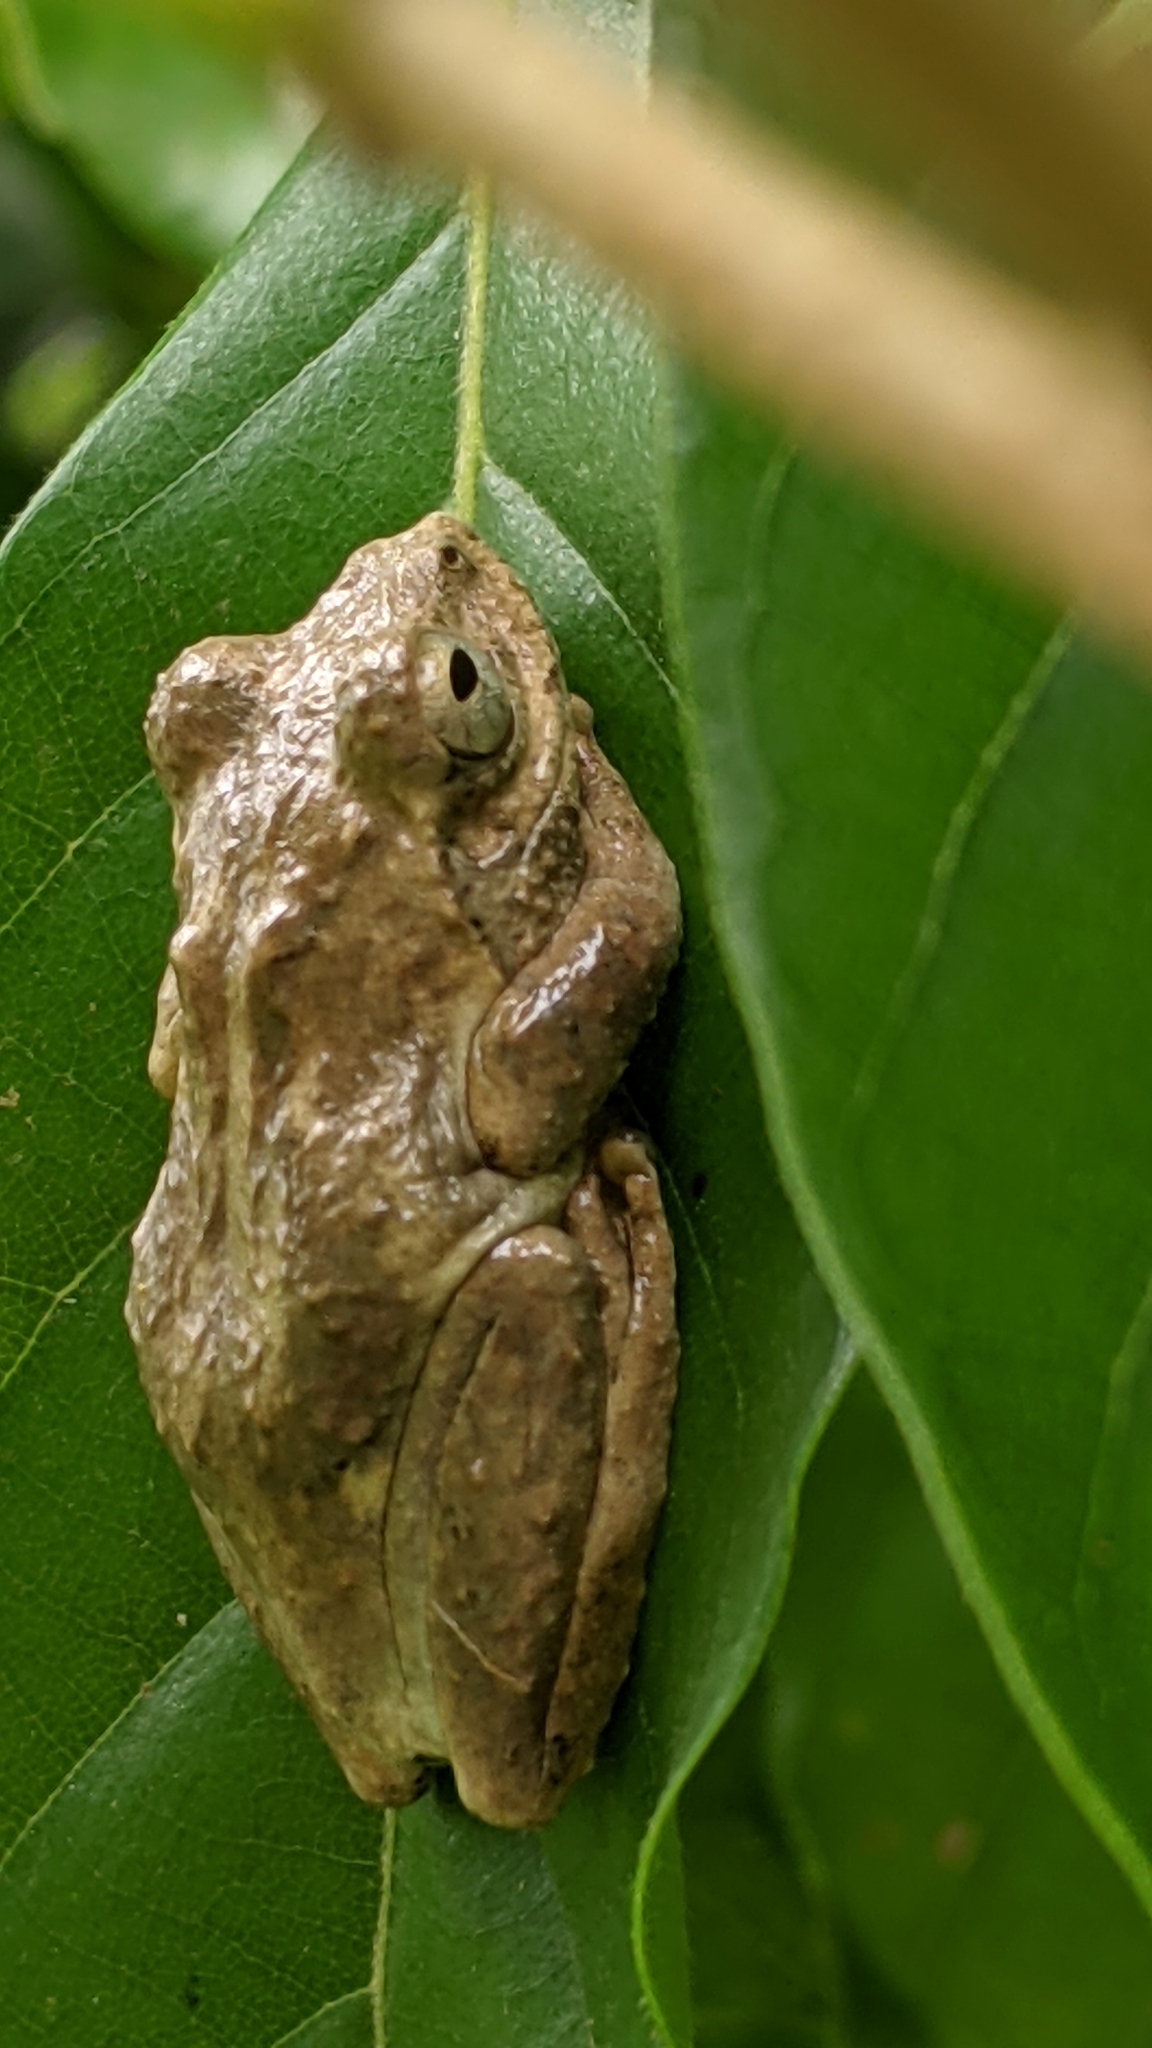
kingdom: Animalia
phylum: Chordata
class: Amphibia
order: Anura
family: Rhacophoridae
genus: Kurixalus
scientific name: Kurixalus idiootocus
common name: Temple treefrog
